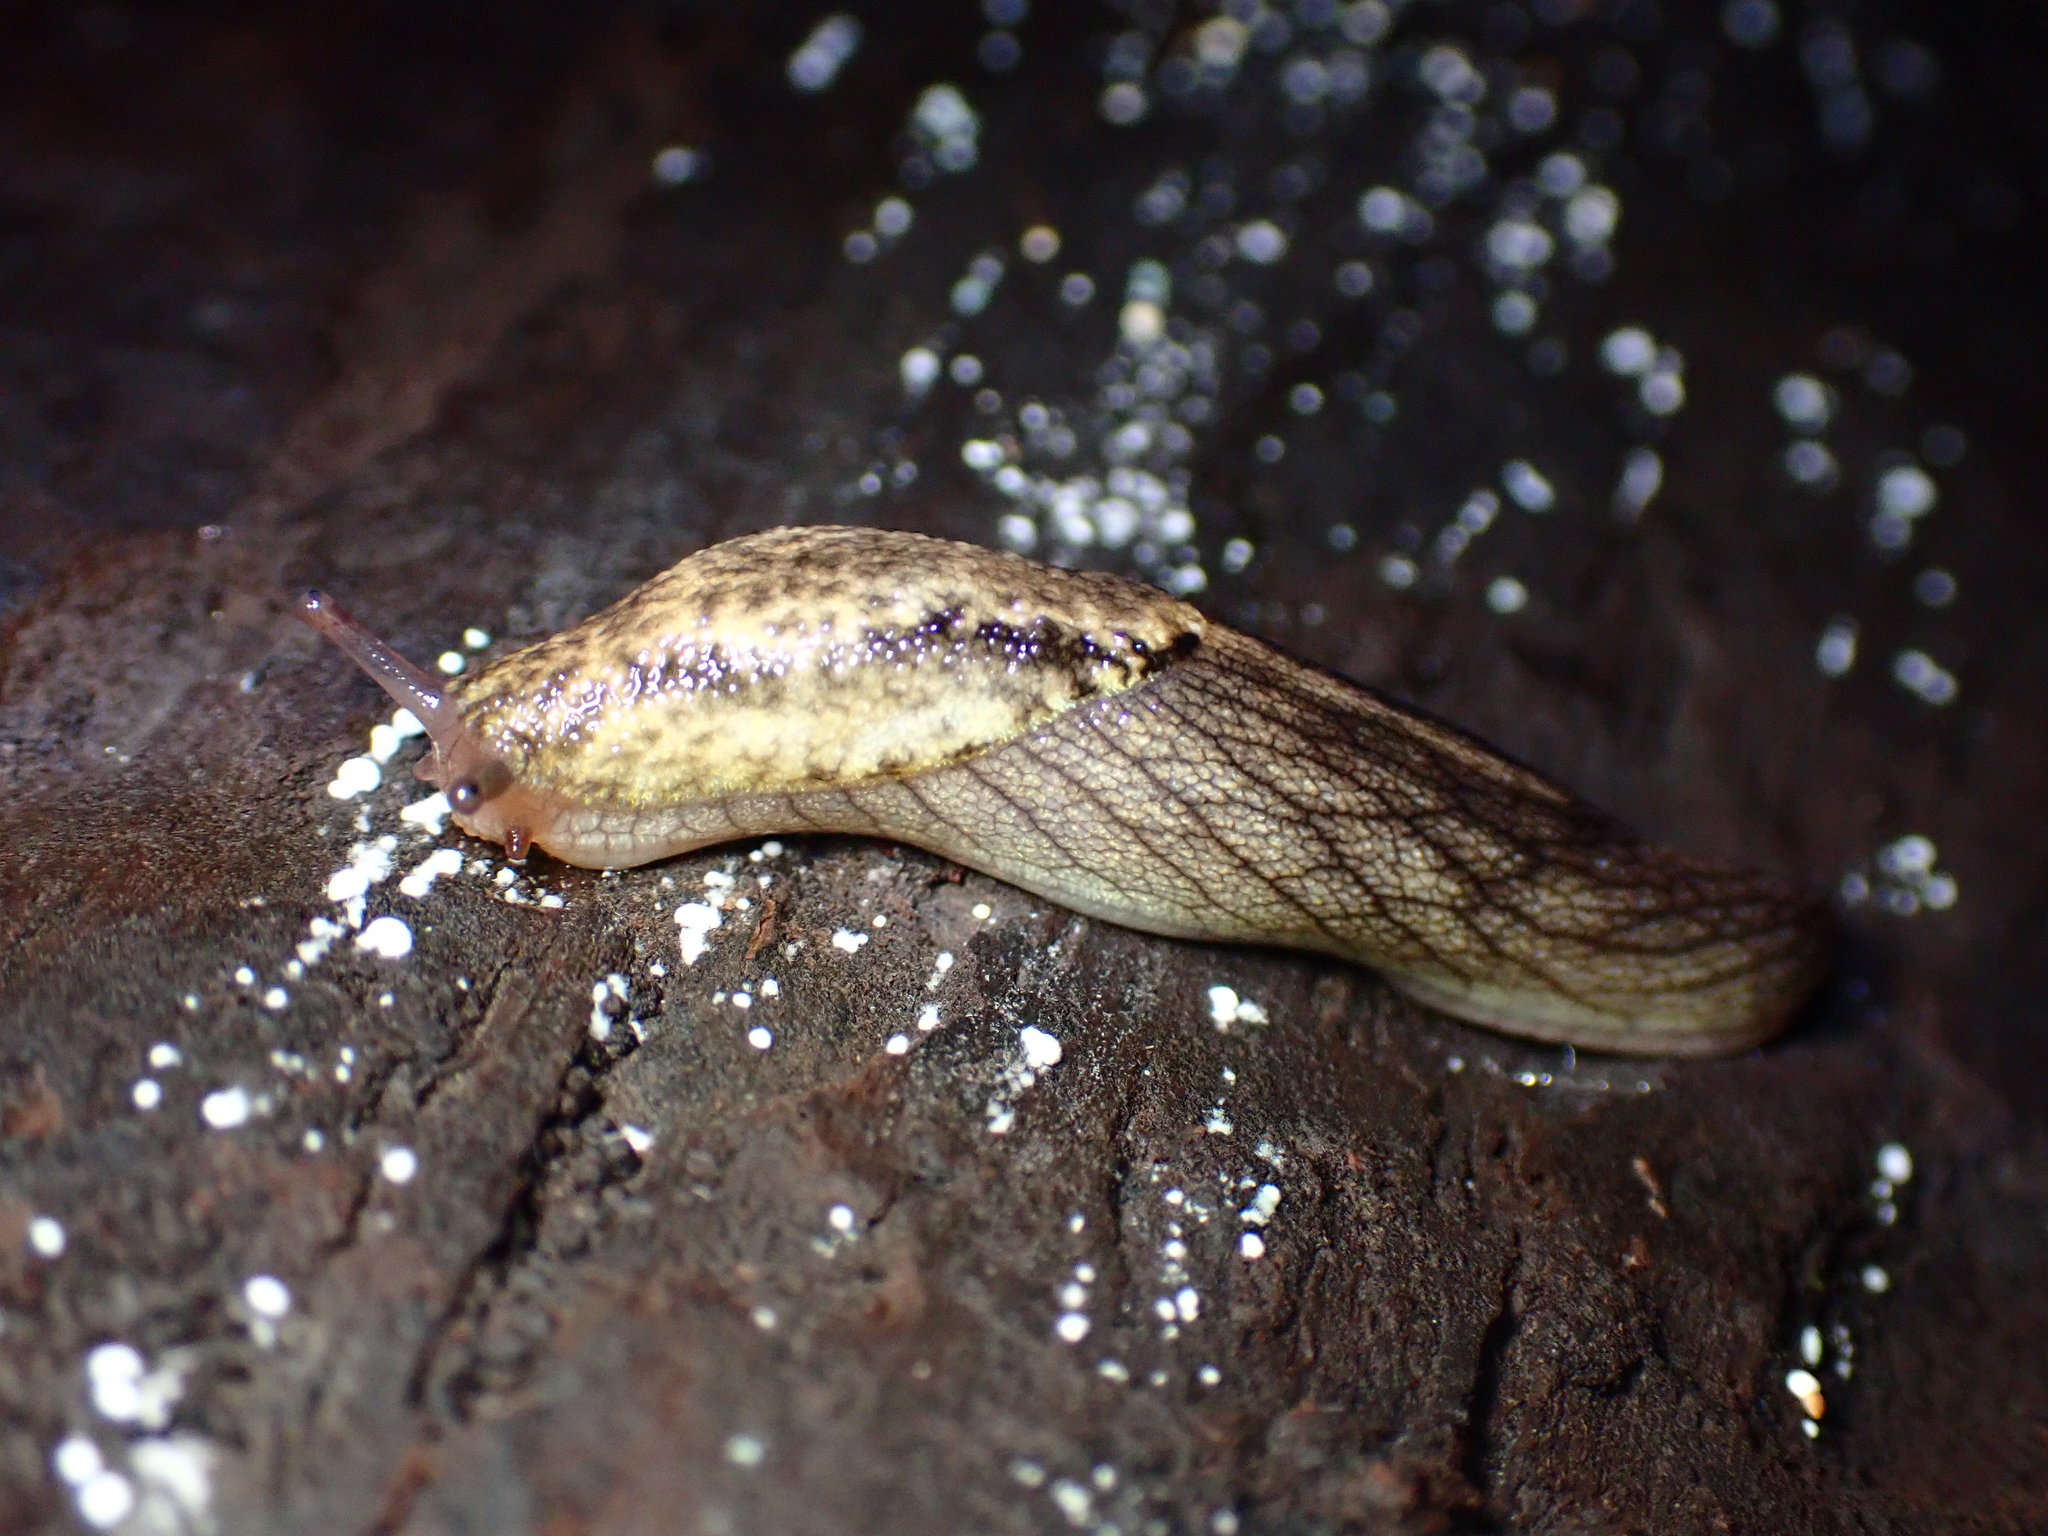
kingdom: Animalia
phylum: Mollusca
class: Gastropoda
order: Stylommatophora
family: Ariolimacidae
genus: Prophysaon
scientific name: Prophysaon andersonii
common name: Reticulate taildropper
